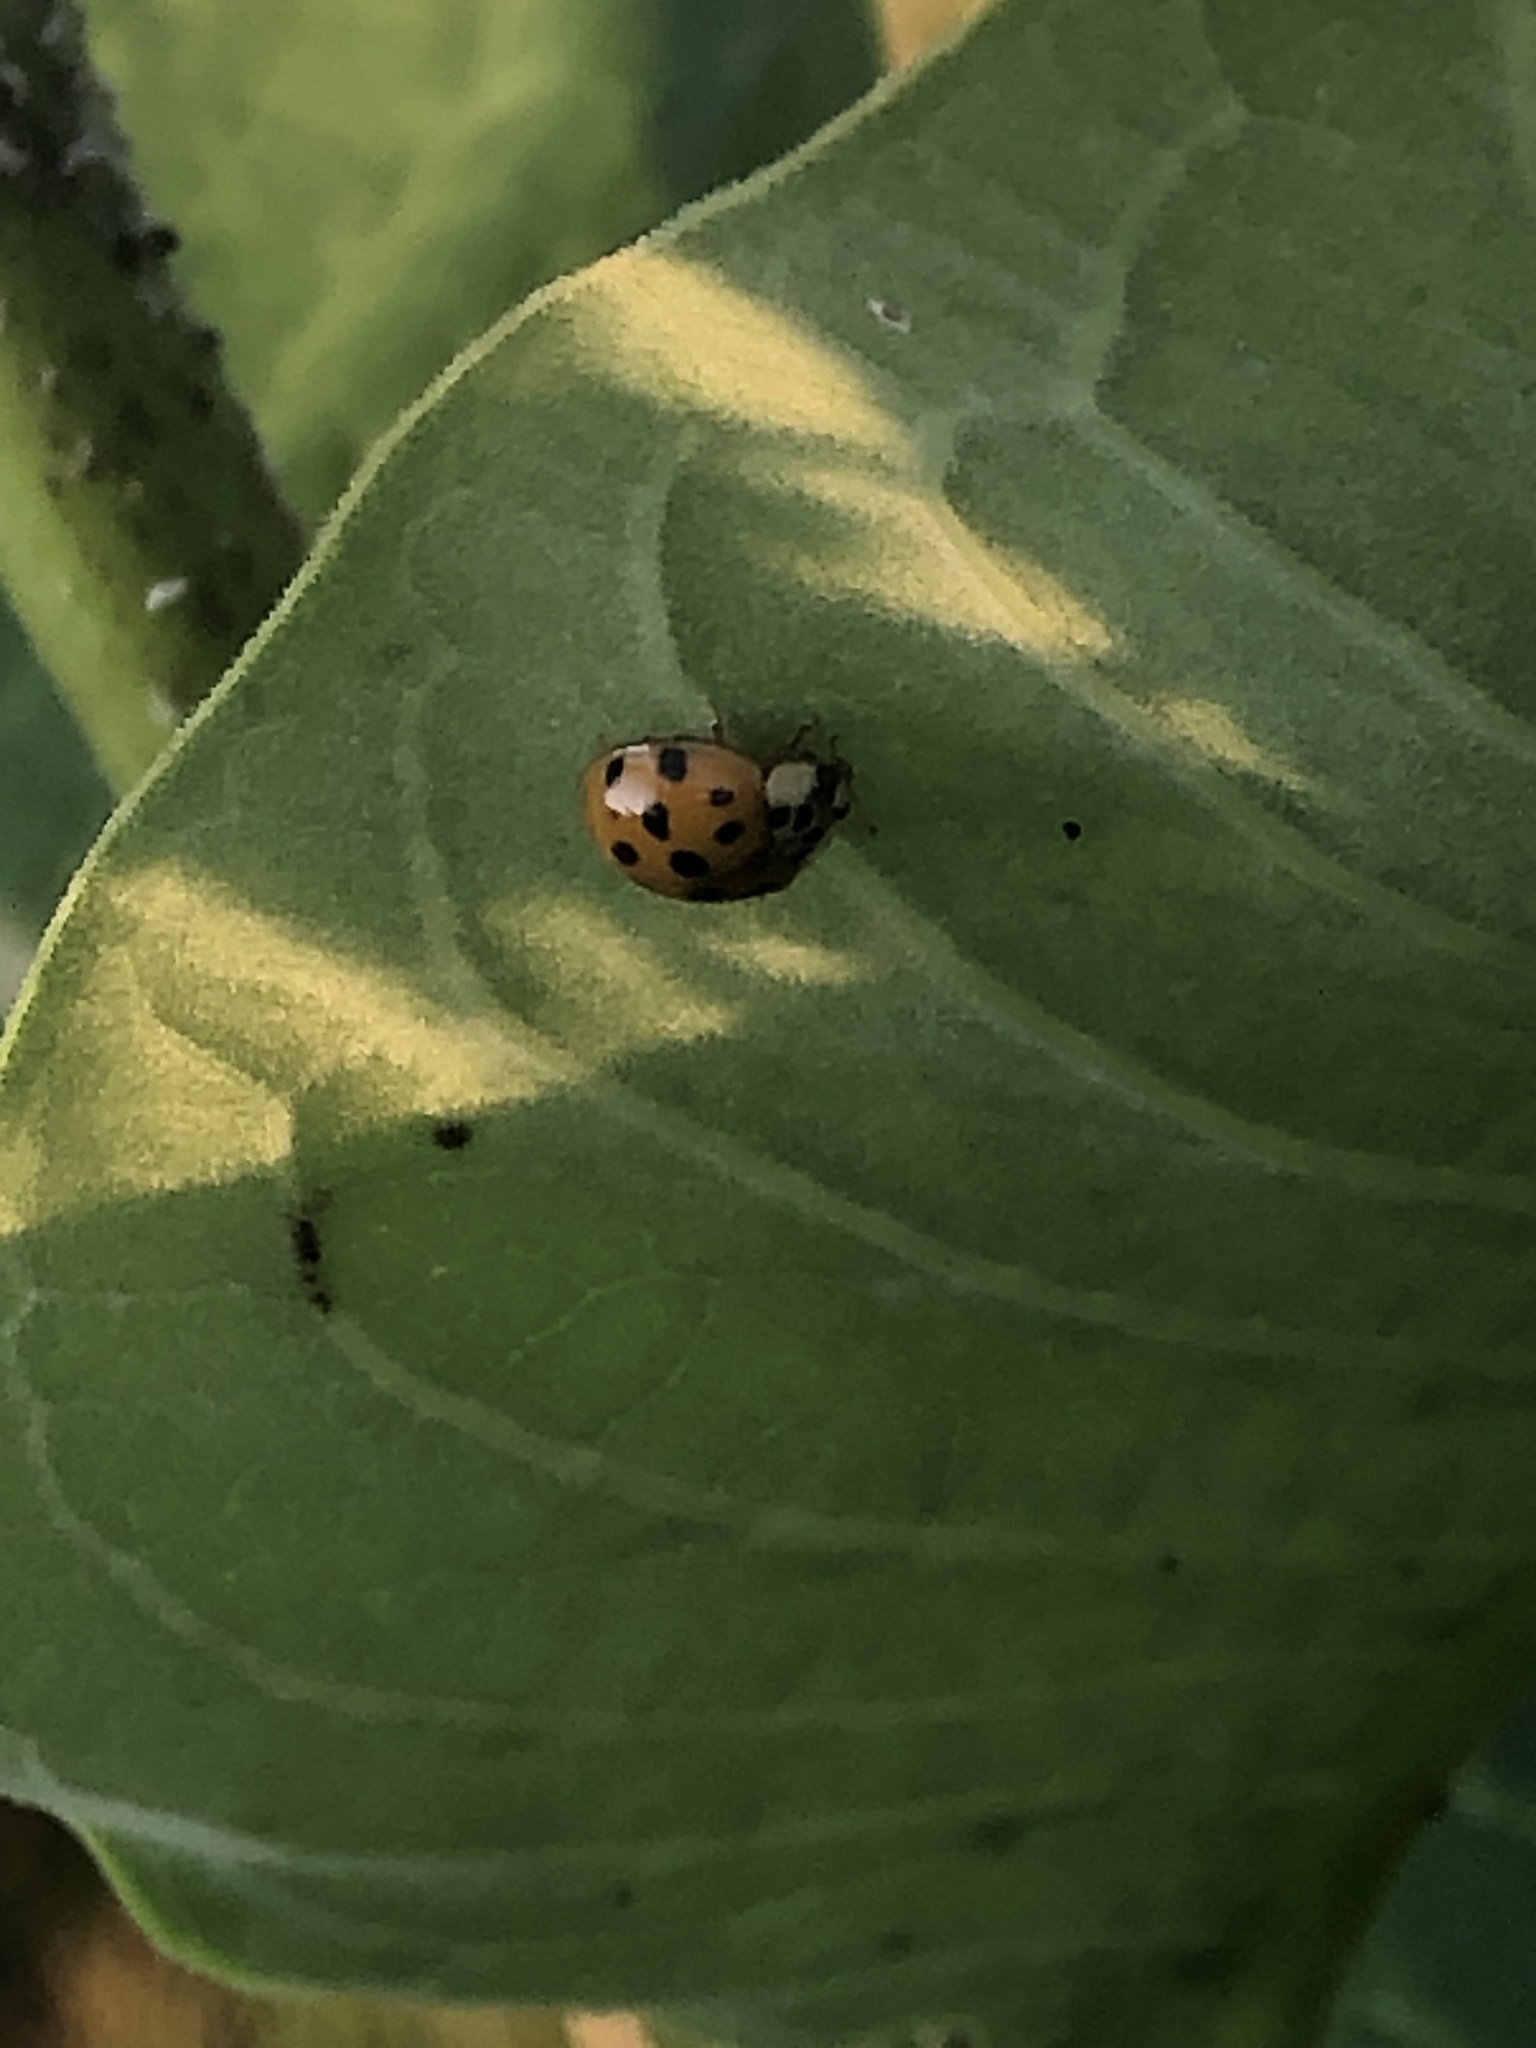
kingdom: Animalia
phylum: Arthropoda
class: Insecta
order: Coleoptera
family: Coccinellidae
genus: Harmonia
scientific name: Harmonia axyridis
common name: Harlequin ladybird
